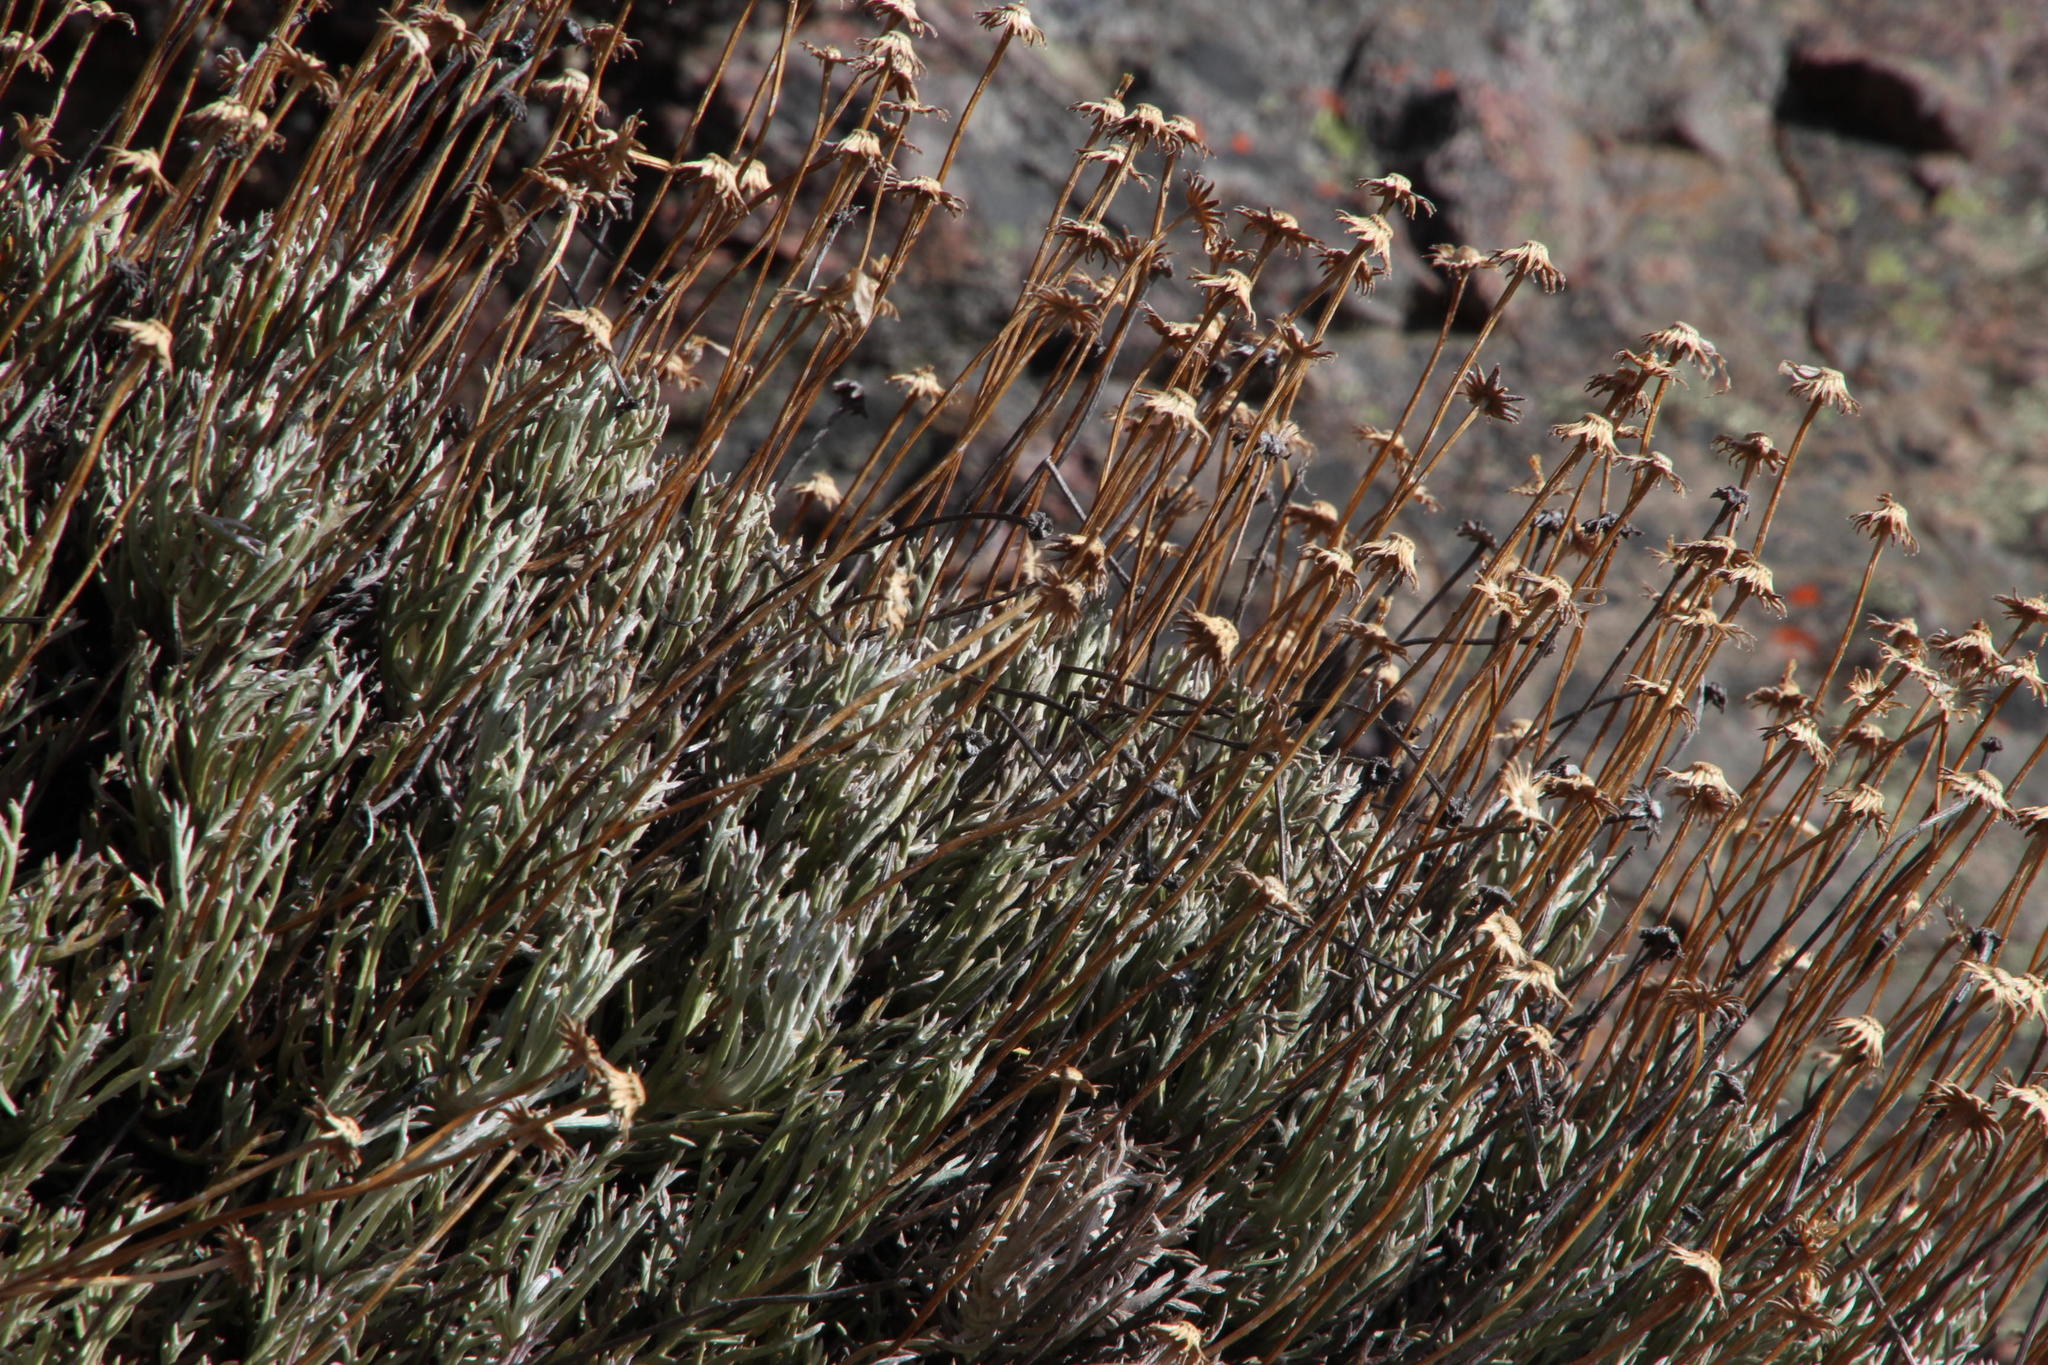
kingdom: Plantae
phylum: Tracheophyta
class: Magnoliopsida
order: Asterales
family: Asteraceae
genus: Euryops
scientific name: Euryops othonnoides
